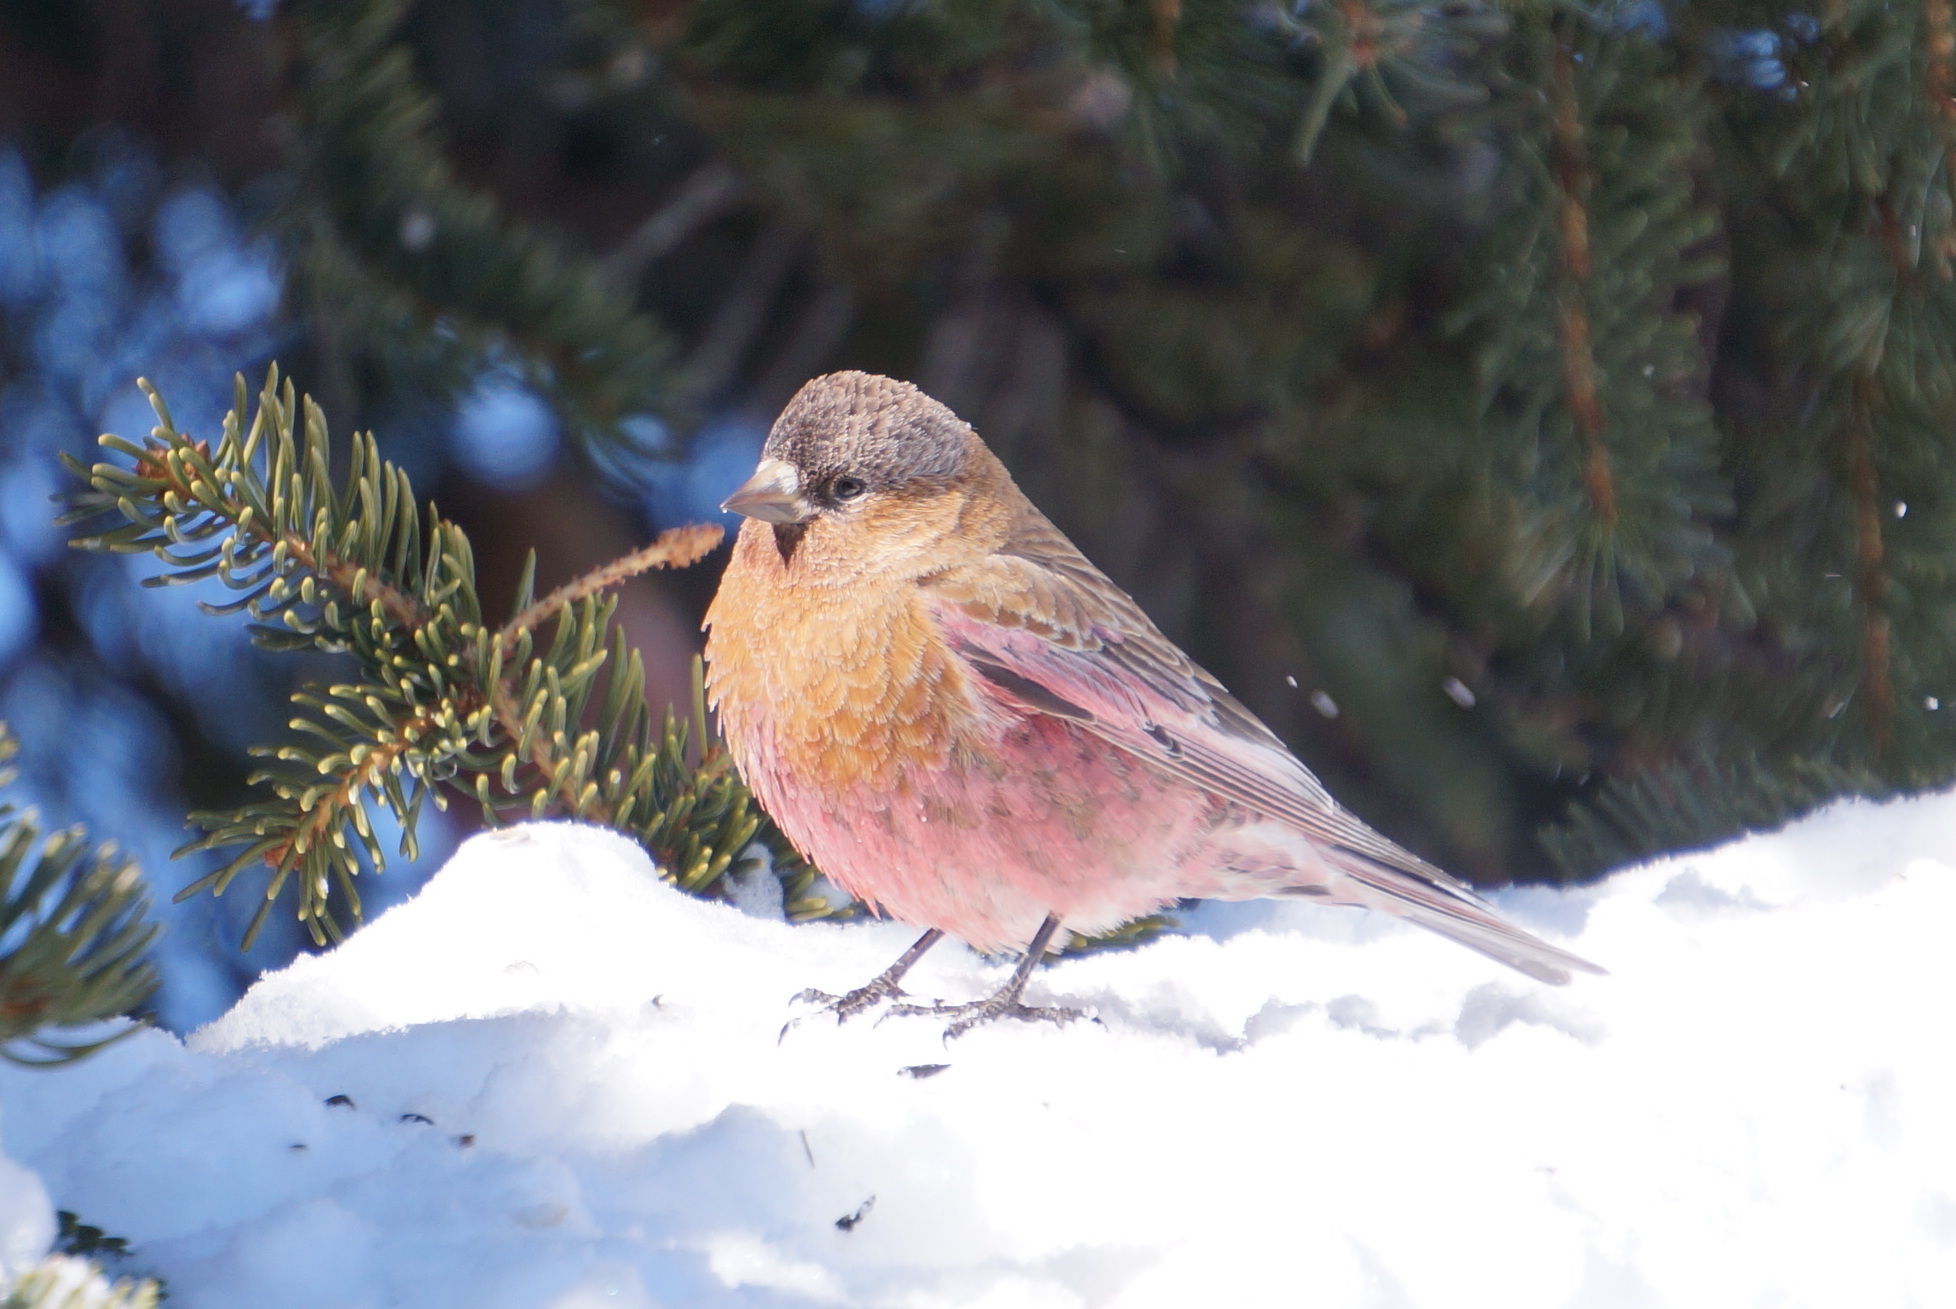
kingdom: Animalia
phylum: Chordata
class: Aves
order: Passeriformes
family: Fringillidae
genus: Leucosticte
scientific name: Leucosticte australis
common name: Brown-capped rosy-finch
